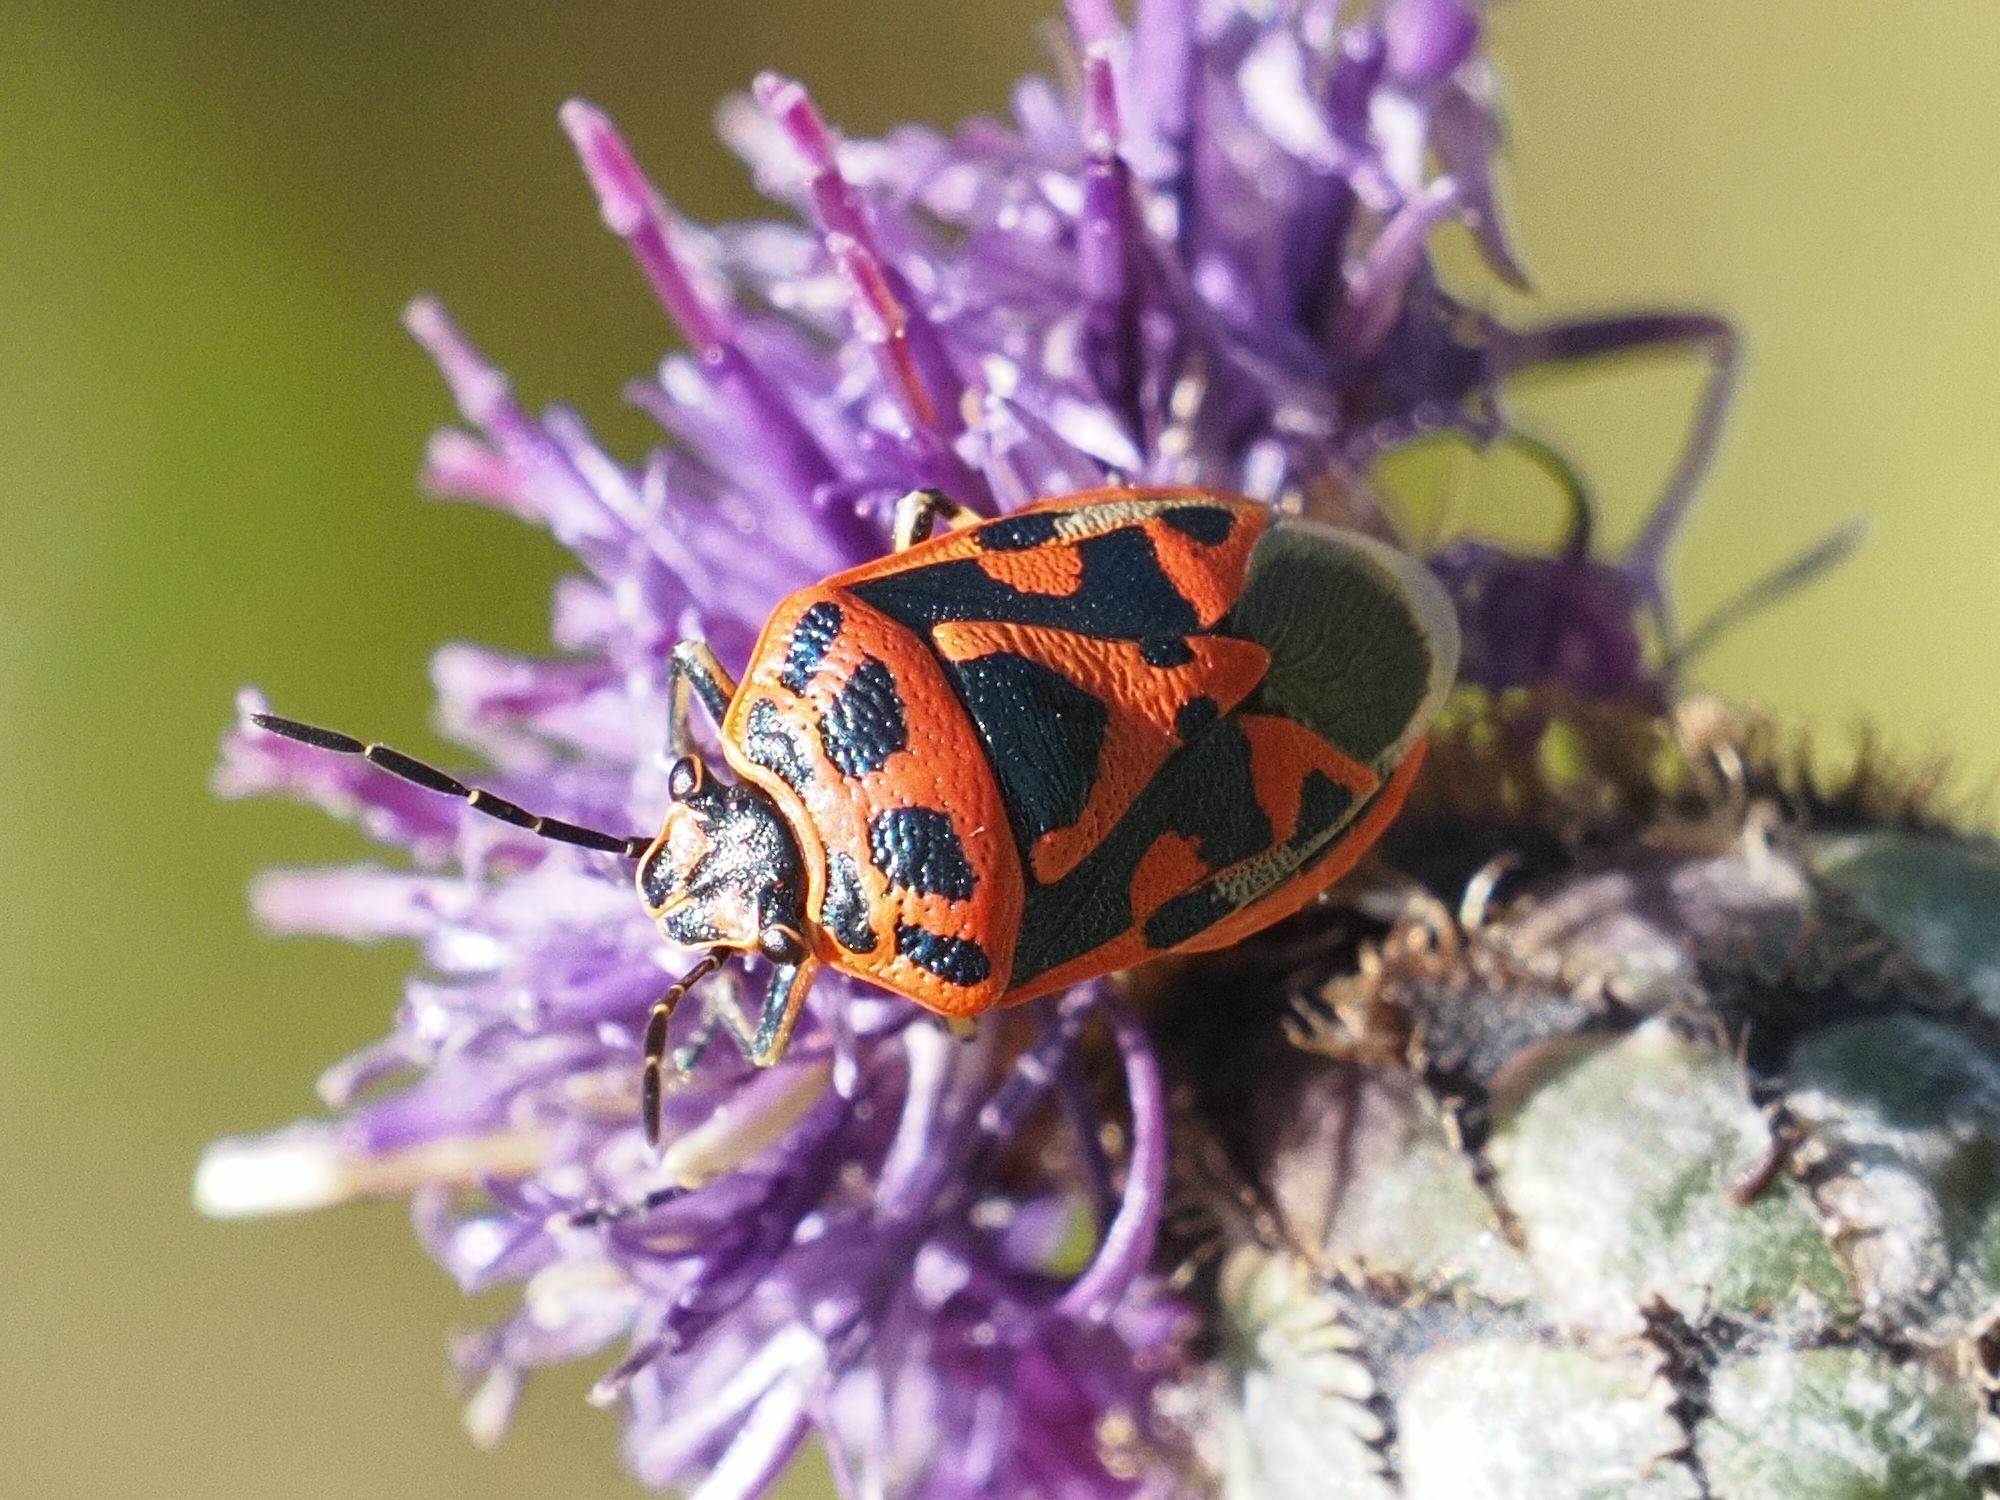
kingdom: Animalia
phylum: Arthropoda
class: Insecta
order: Hemiptera
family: Pentatomidae
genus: Eurydema
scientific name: Eurydema ornata
